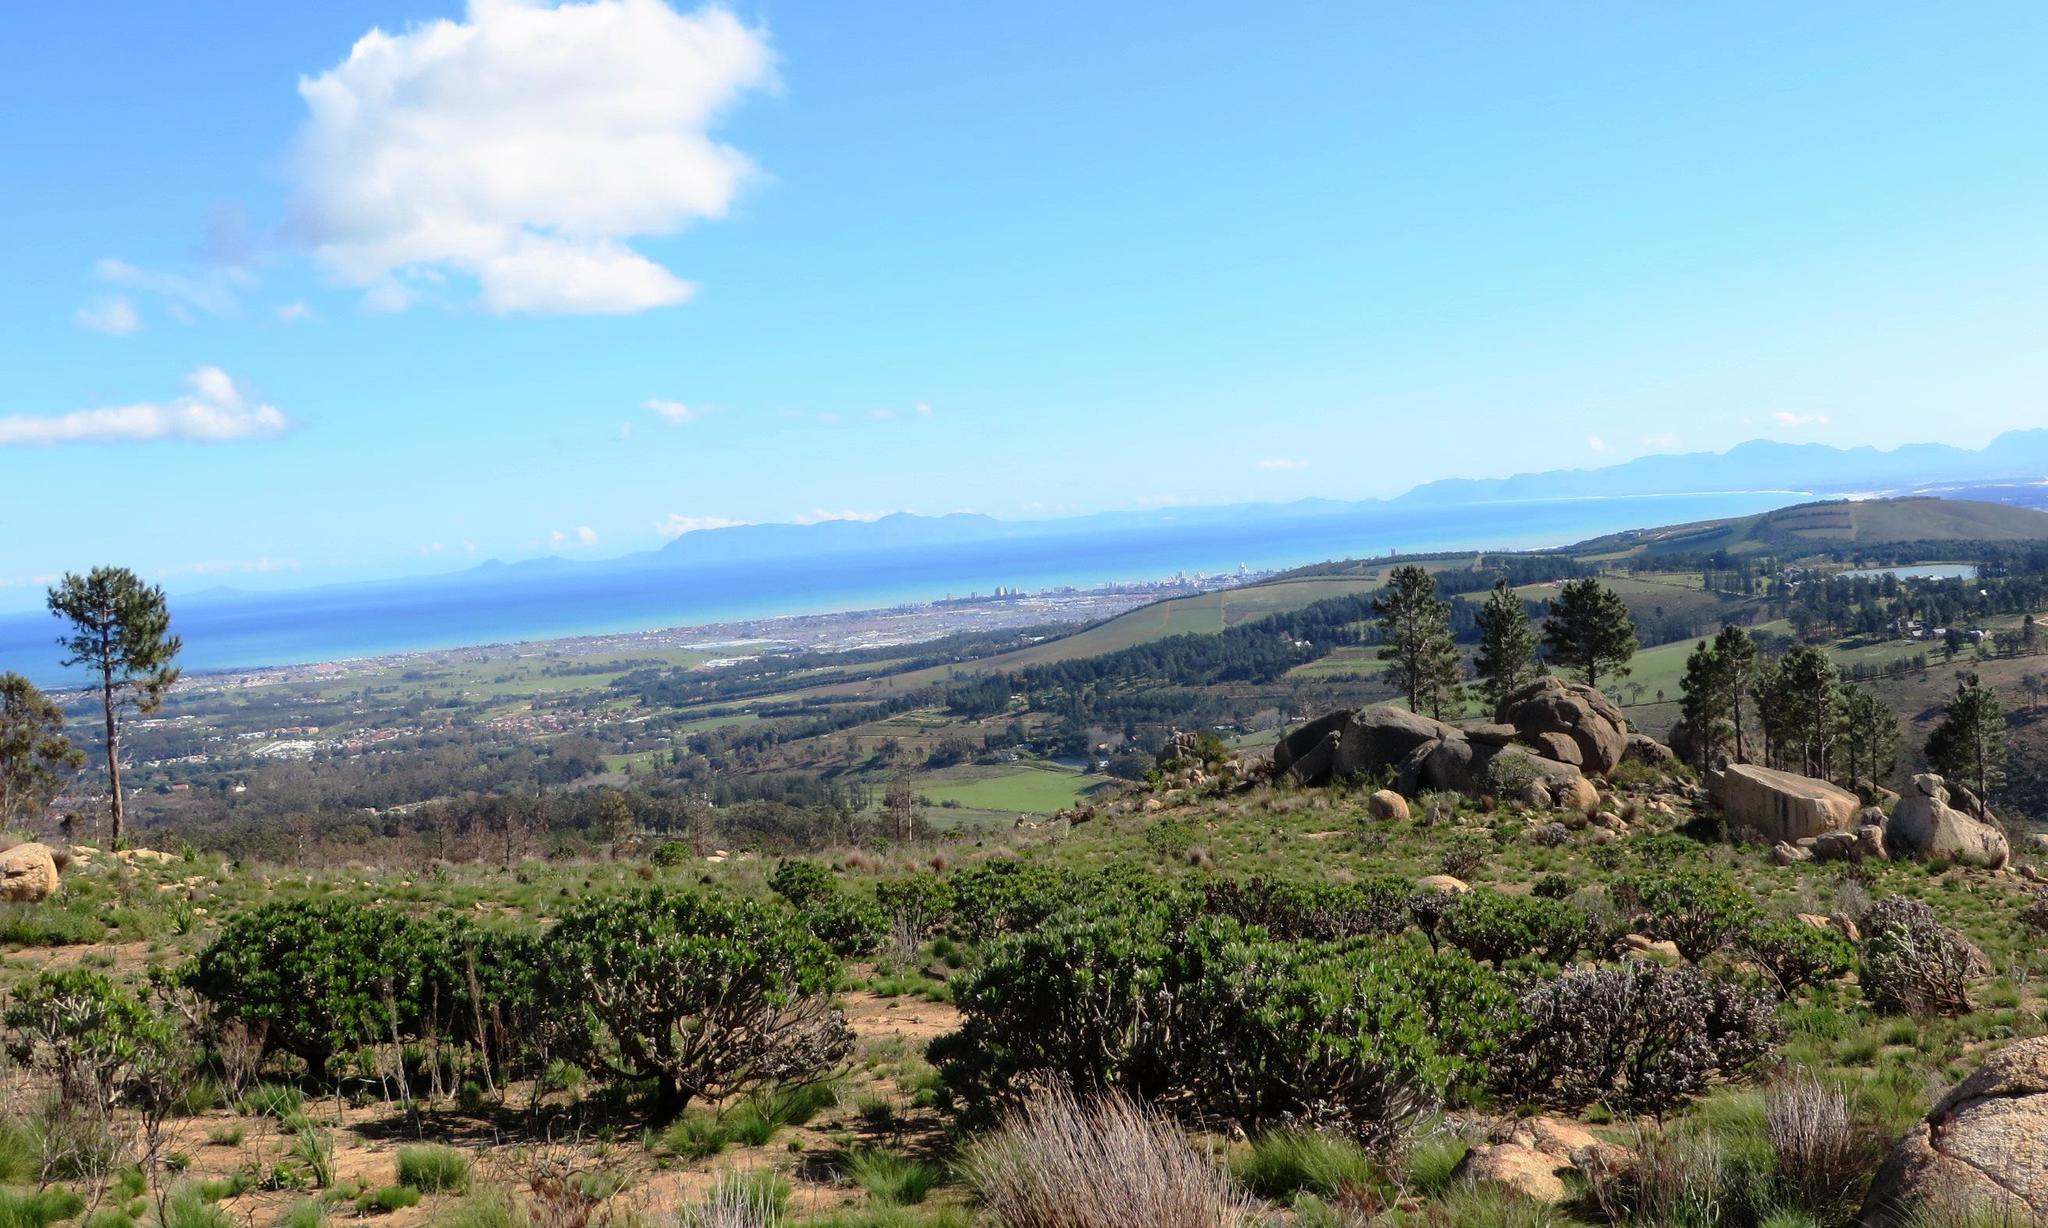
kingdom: Plantae
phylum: Tracheophyta
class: Magnoliopsida
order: Proteales
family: Proteaceae
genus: Leucospermum
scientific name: Leucospermum conocarpodendron
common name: Tree pincushion
